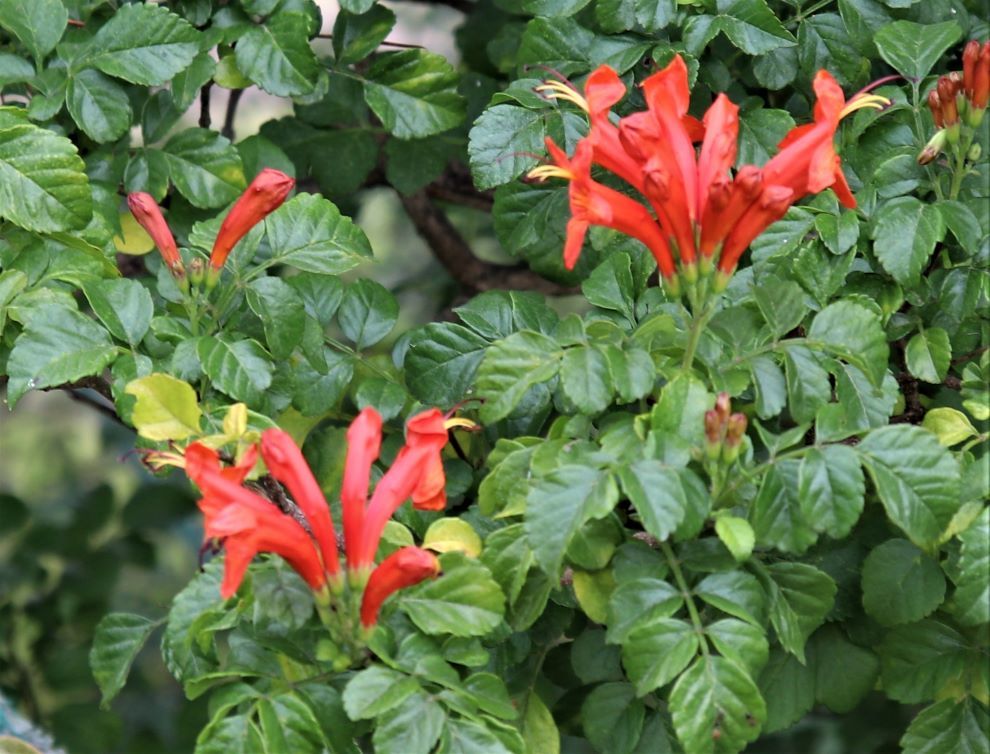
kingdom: Plantae
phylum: Tracheophyta
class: Magnoliopsida
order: Lamiales
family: Bignoniaceae
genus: Tecomaria
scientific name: Tecomaria capensis
